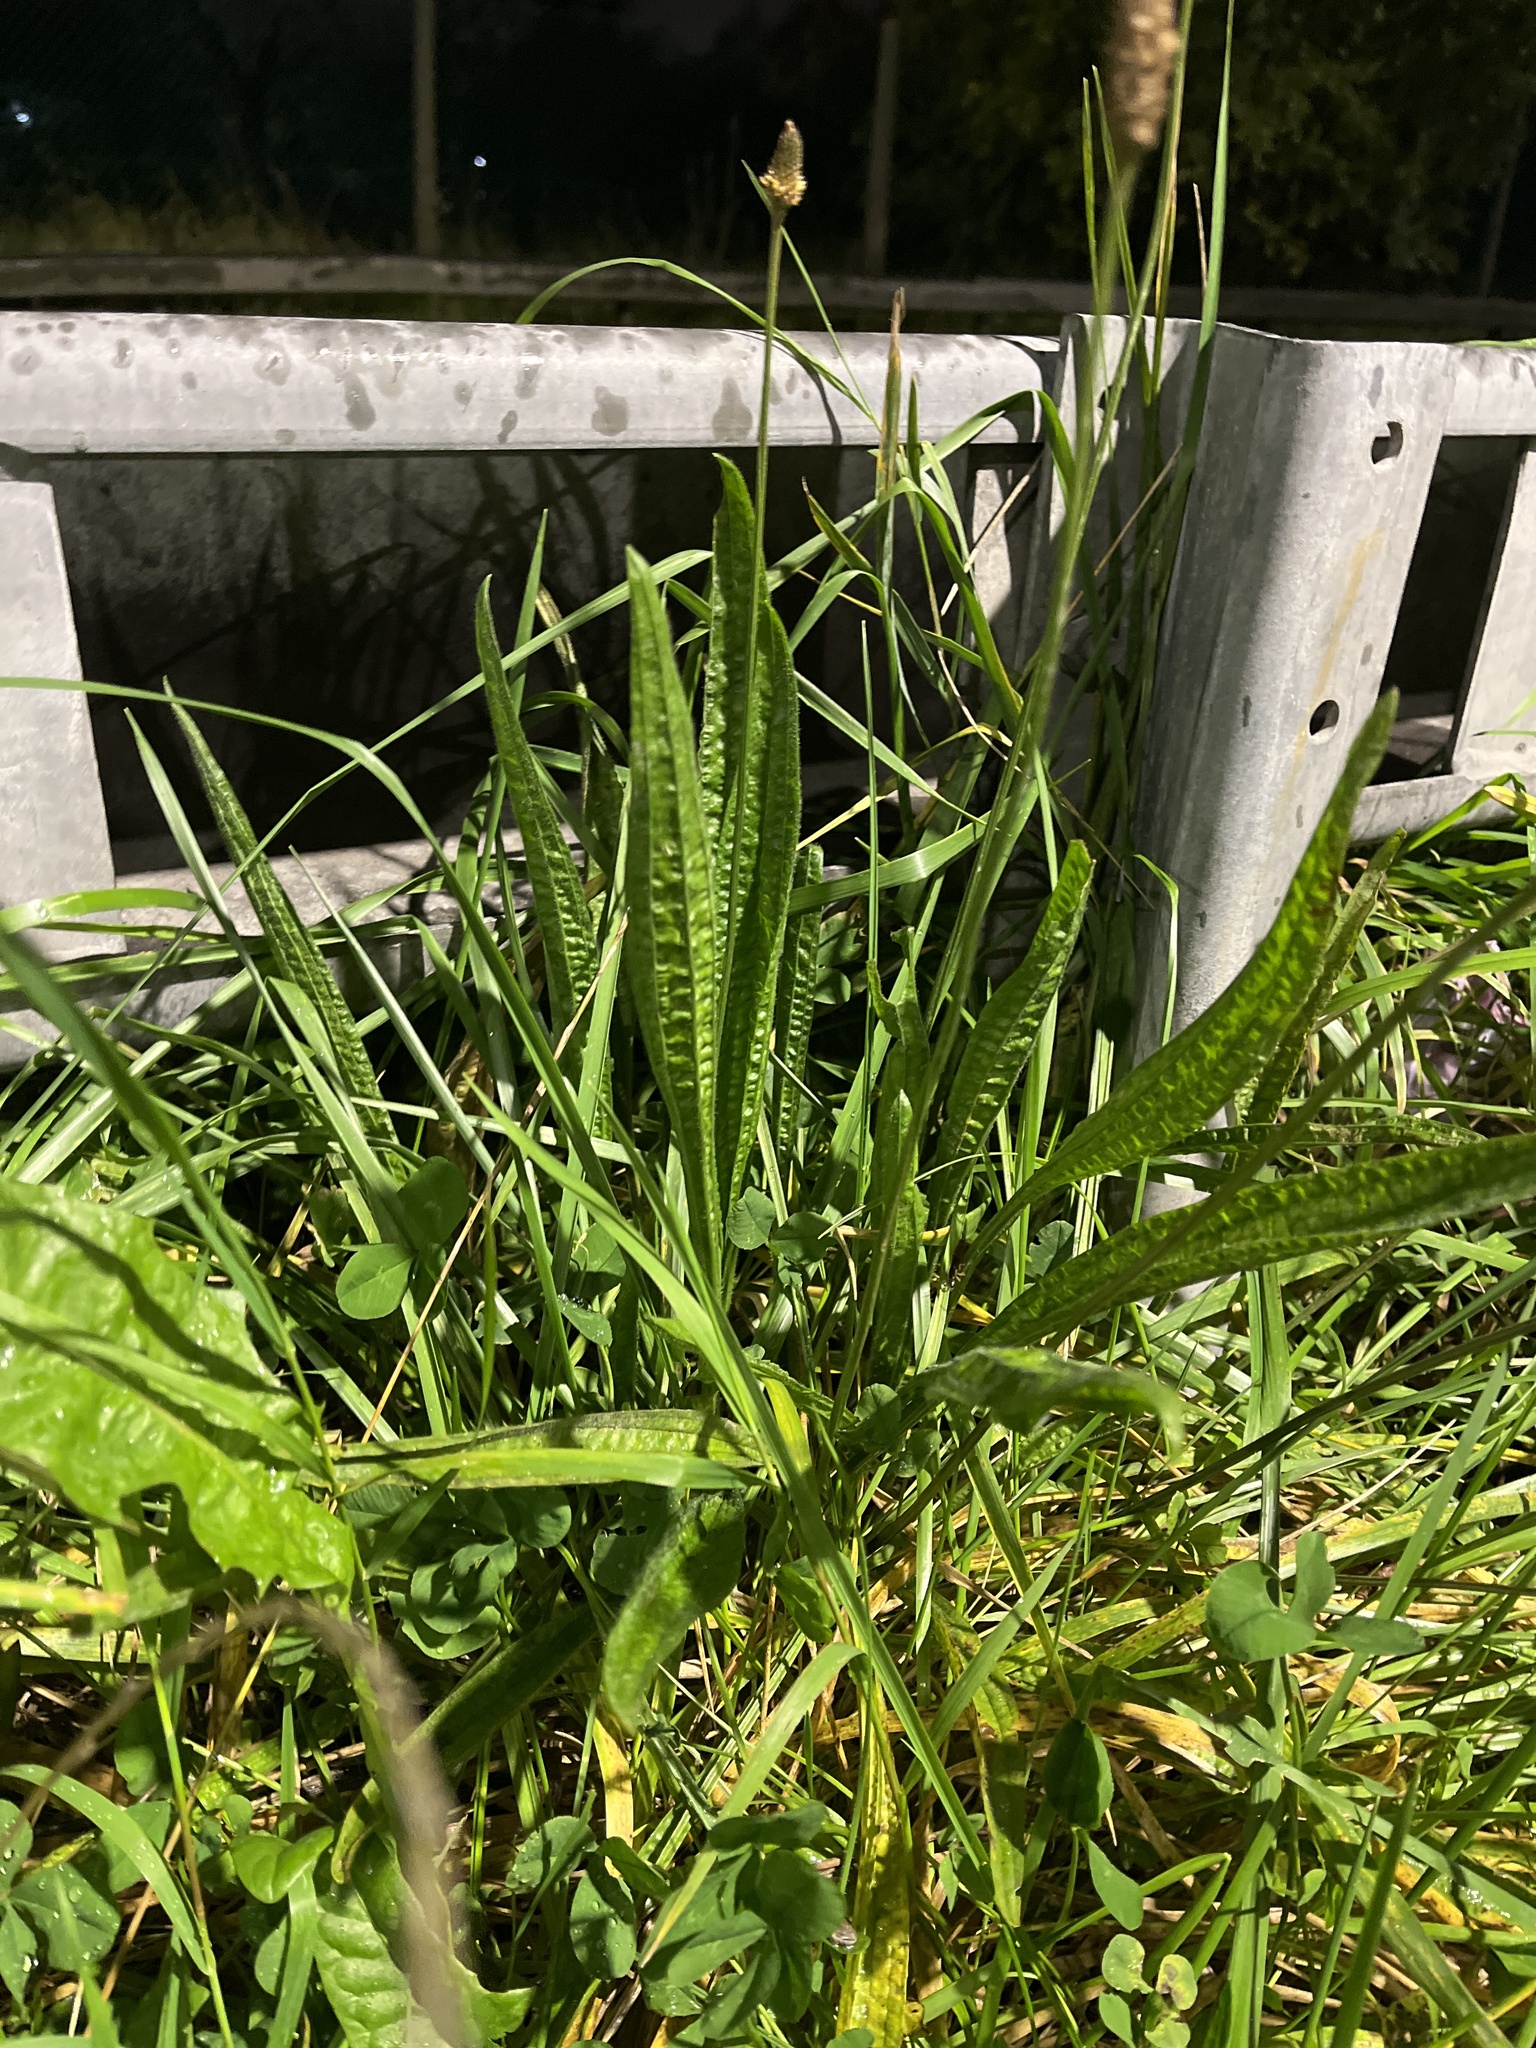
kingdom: Plantae
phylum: Tracheophyta
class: Magnoliopsida
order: Lamiales
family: Plantaginaceae
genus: Plantago
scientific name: Plantago lanceolata
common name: Ribwort plantain
